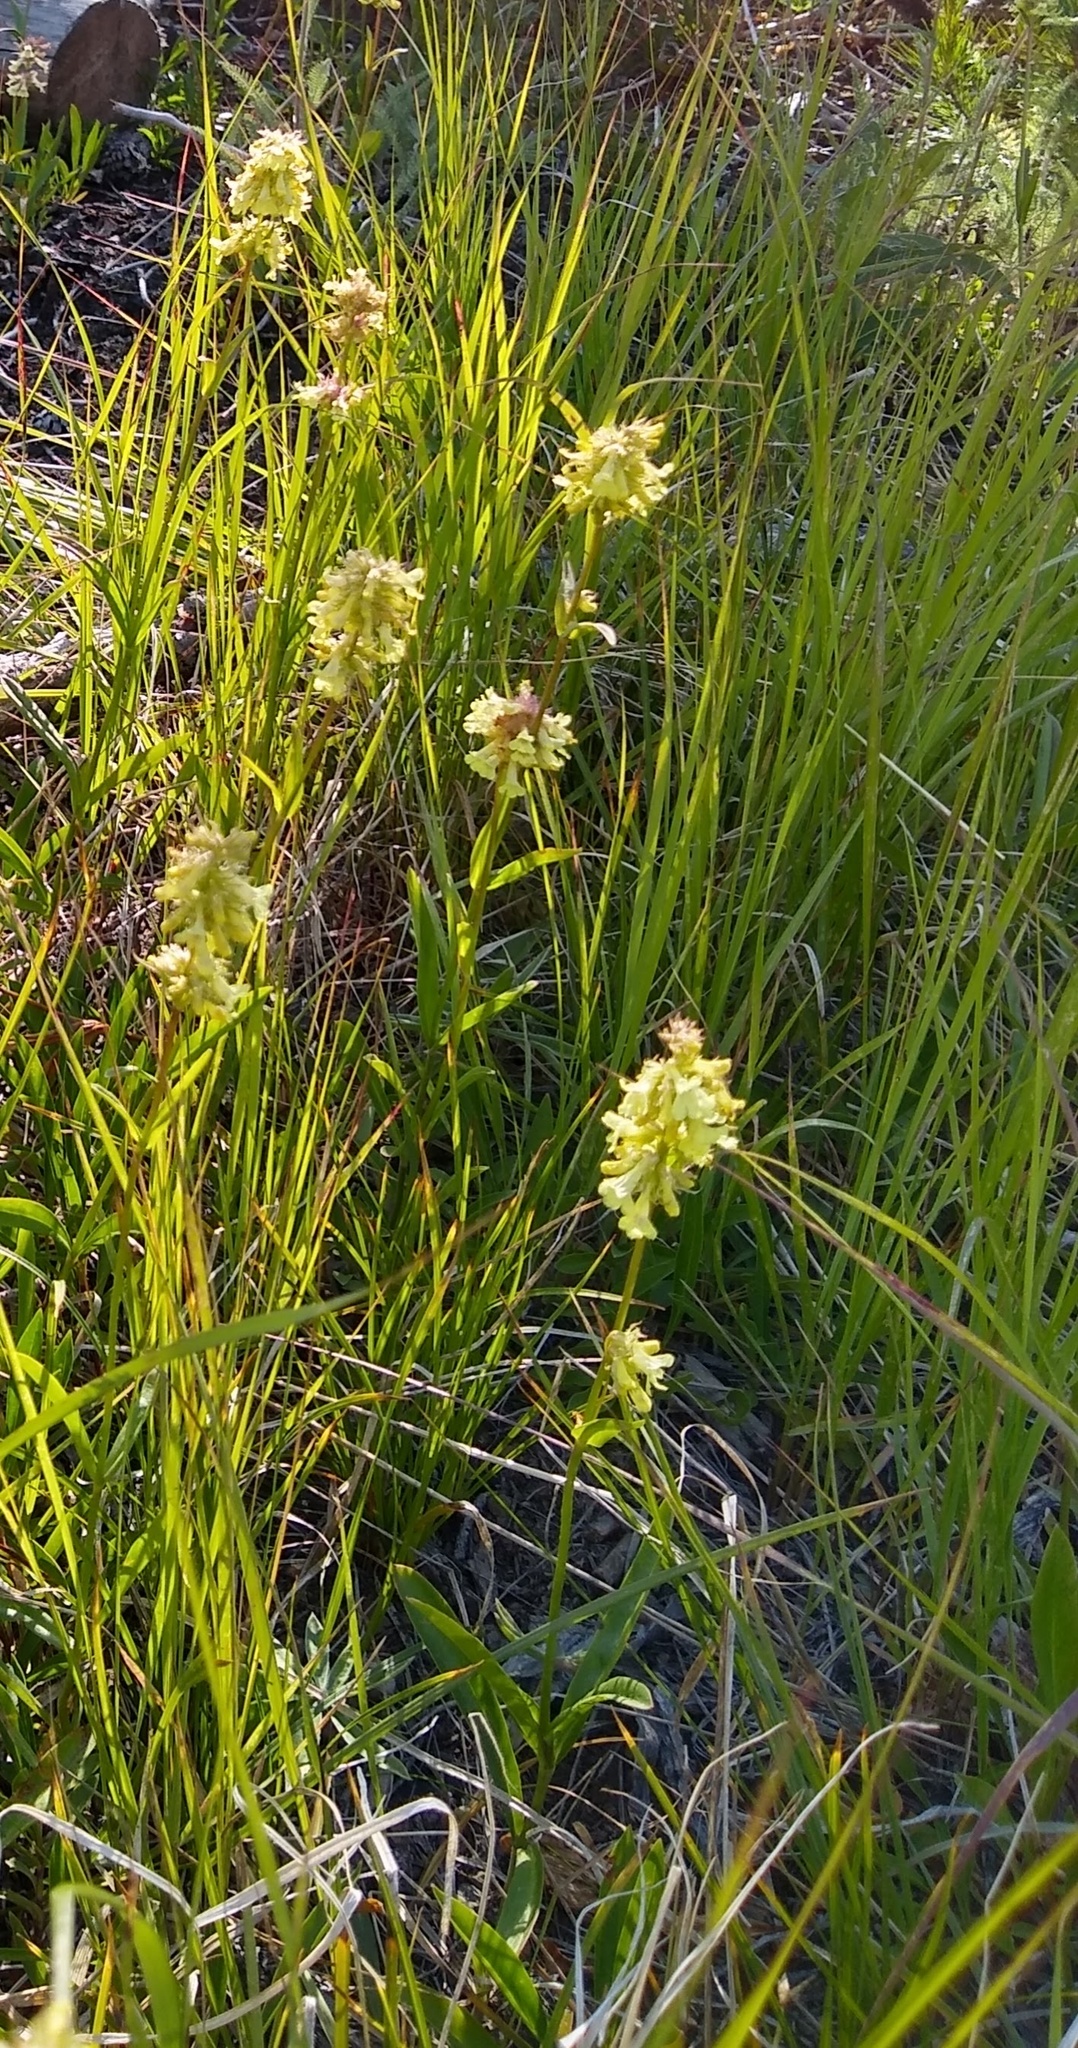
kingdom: Plantae
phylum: Tracheophyta
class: Magnoliopsida
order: Lamiales
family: Plantaginaceae
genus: Penstemon
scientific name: Penstemon confertus
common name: Lesser yellow beardtongue
